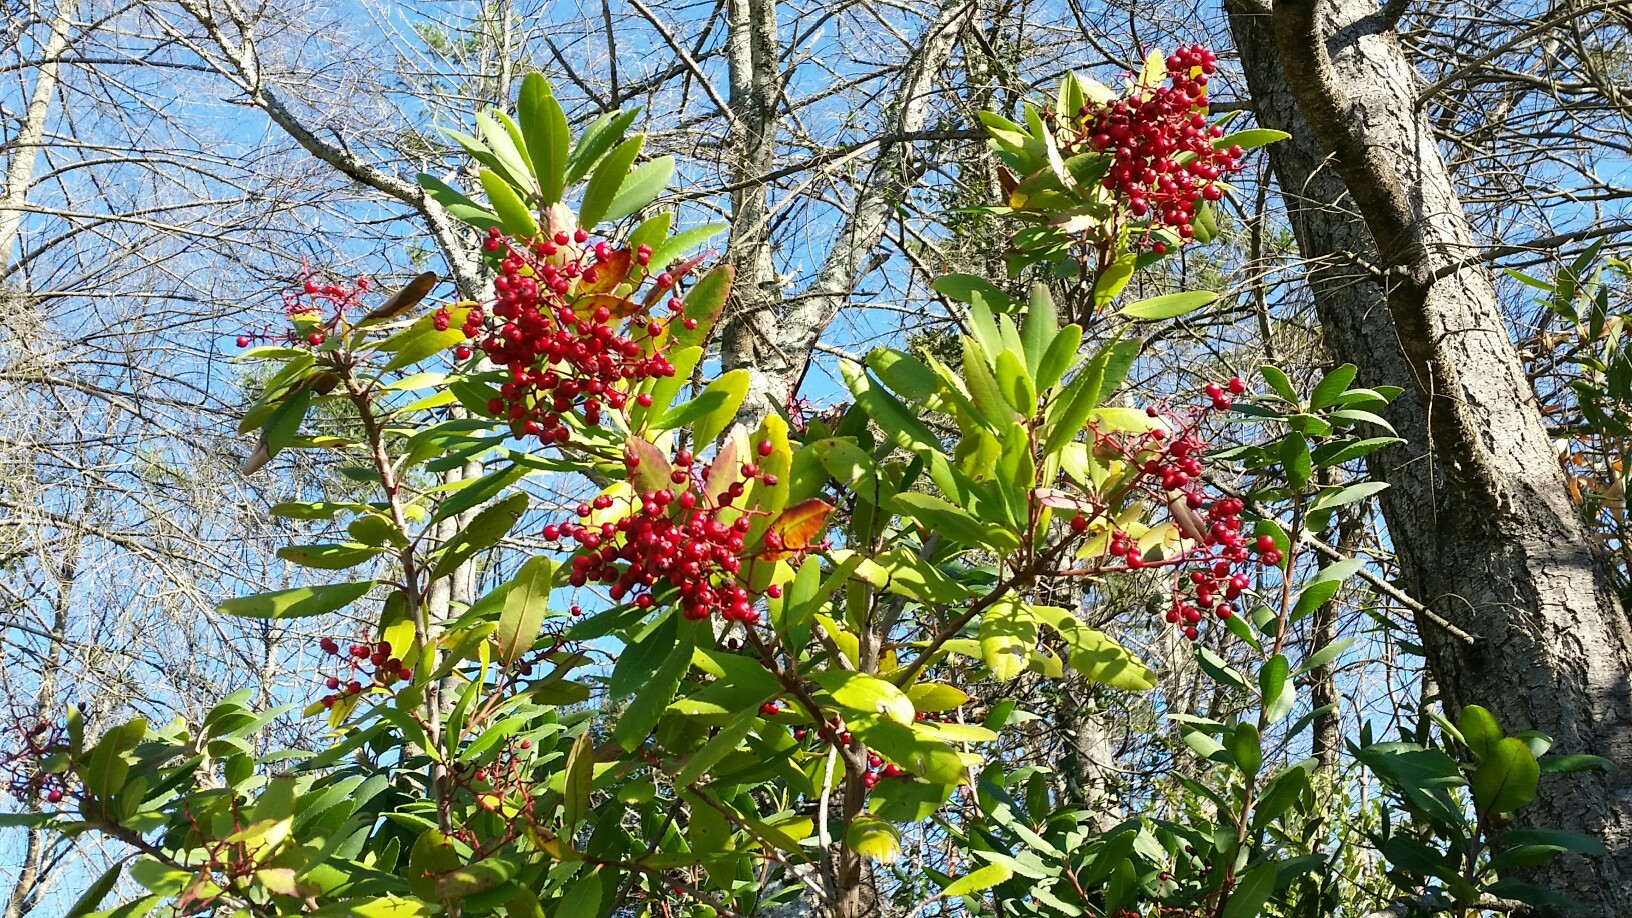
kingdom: Plantae
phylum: Tracheophyta
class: Magnoliopsida
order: Rosales
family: Rosaceae
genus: Heteromeles
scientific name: Heteromeles arbutifolia
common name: California-holly
